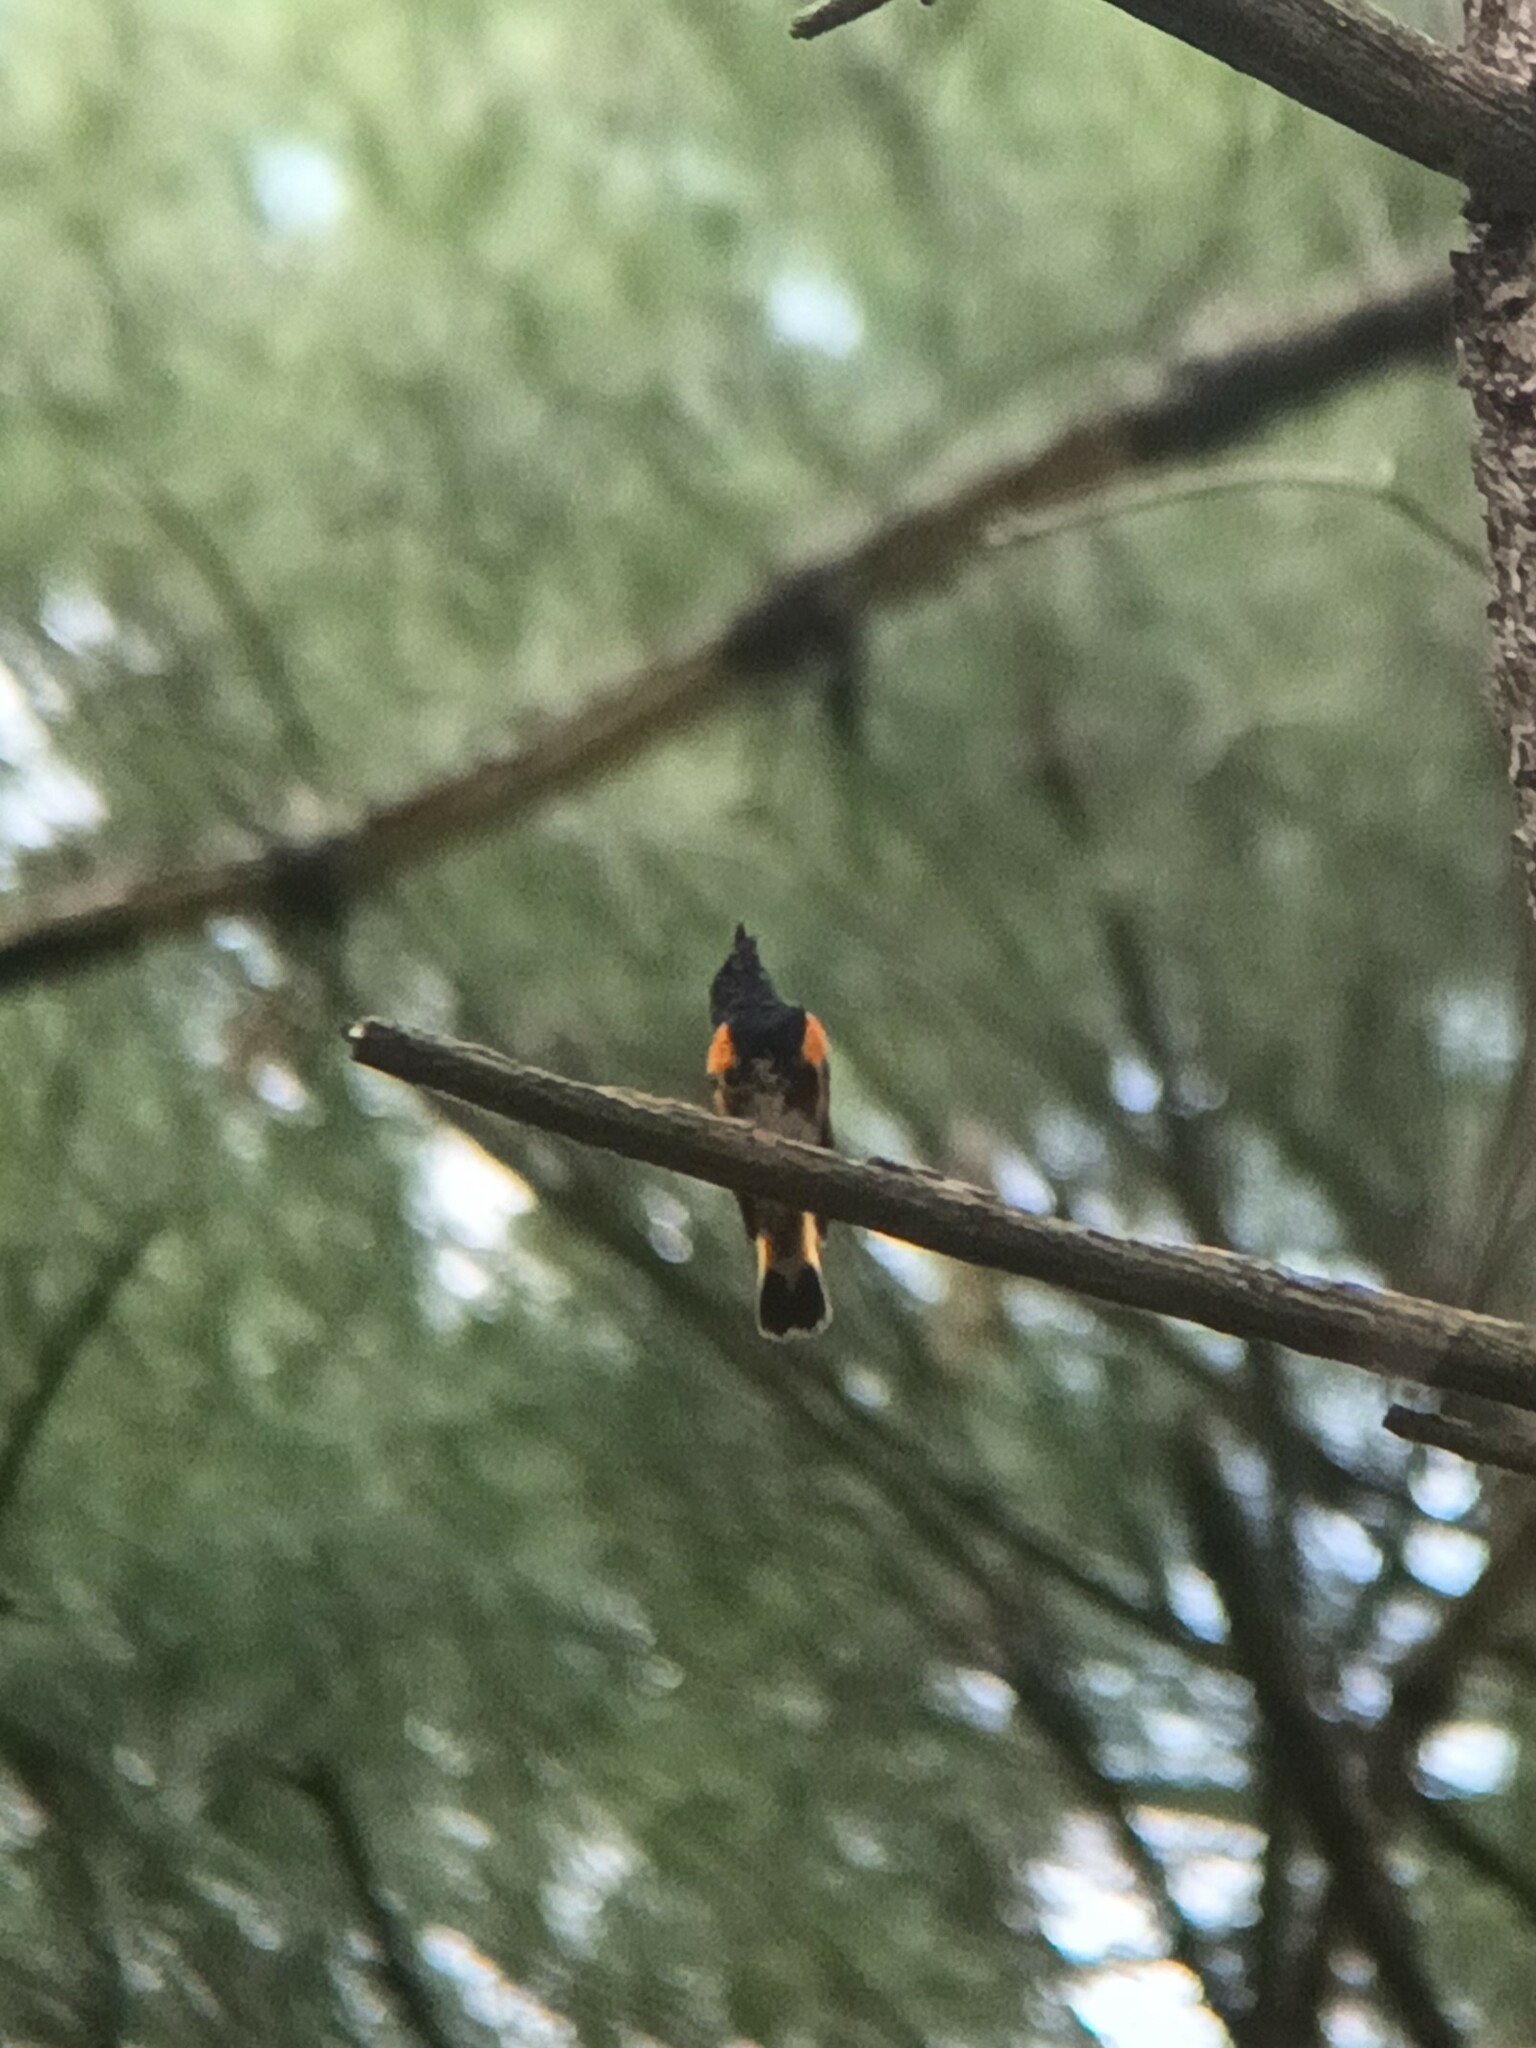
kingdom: Animalia
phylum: Chordata
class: Aves
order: Passeriformes
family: Parulidae
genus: Setophaga
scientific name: Setophaga ruticilla
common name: American redstart
